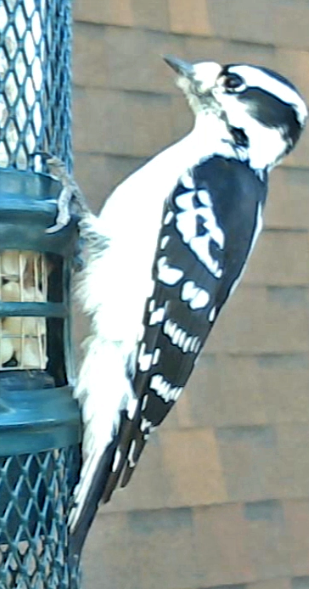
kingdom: Animalia
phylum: Chordata
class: Aves
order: Piciformes
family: Picidae
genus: Dryobates
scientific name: Dryobates pubescens
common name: Downy woodpecker
